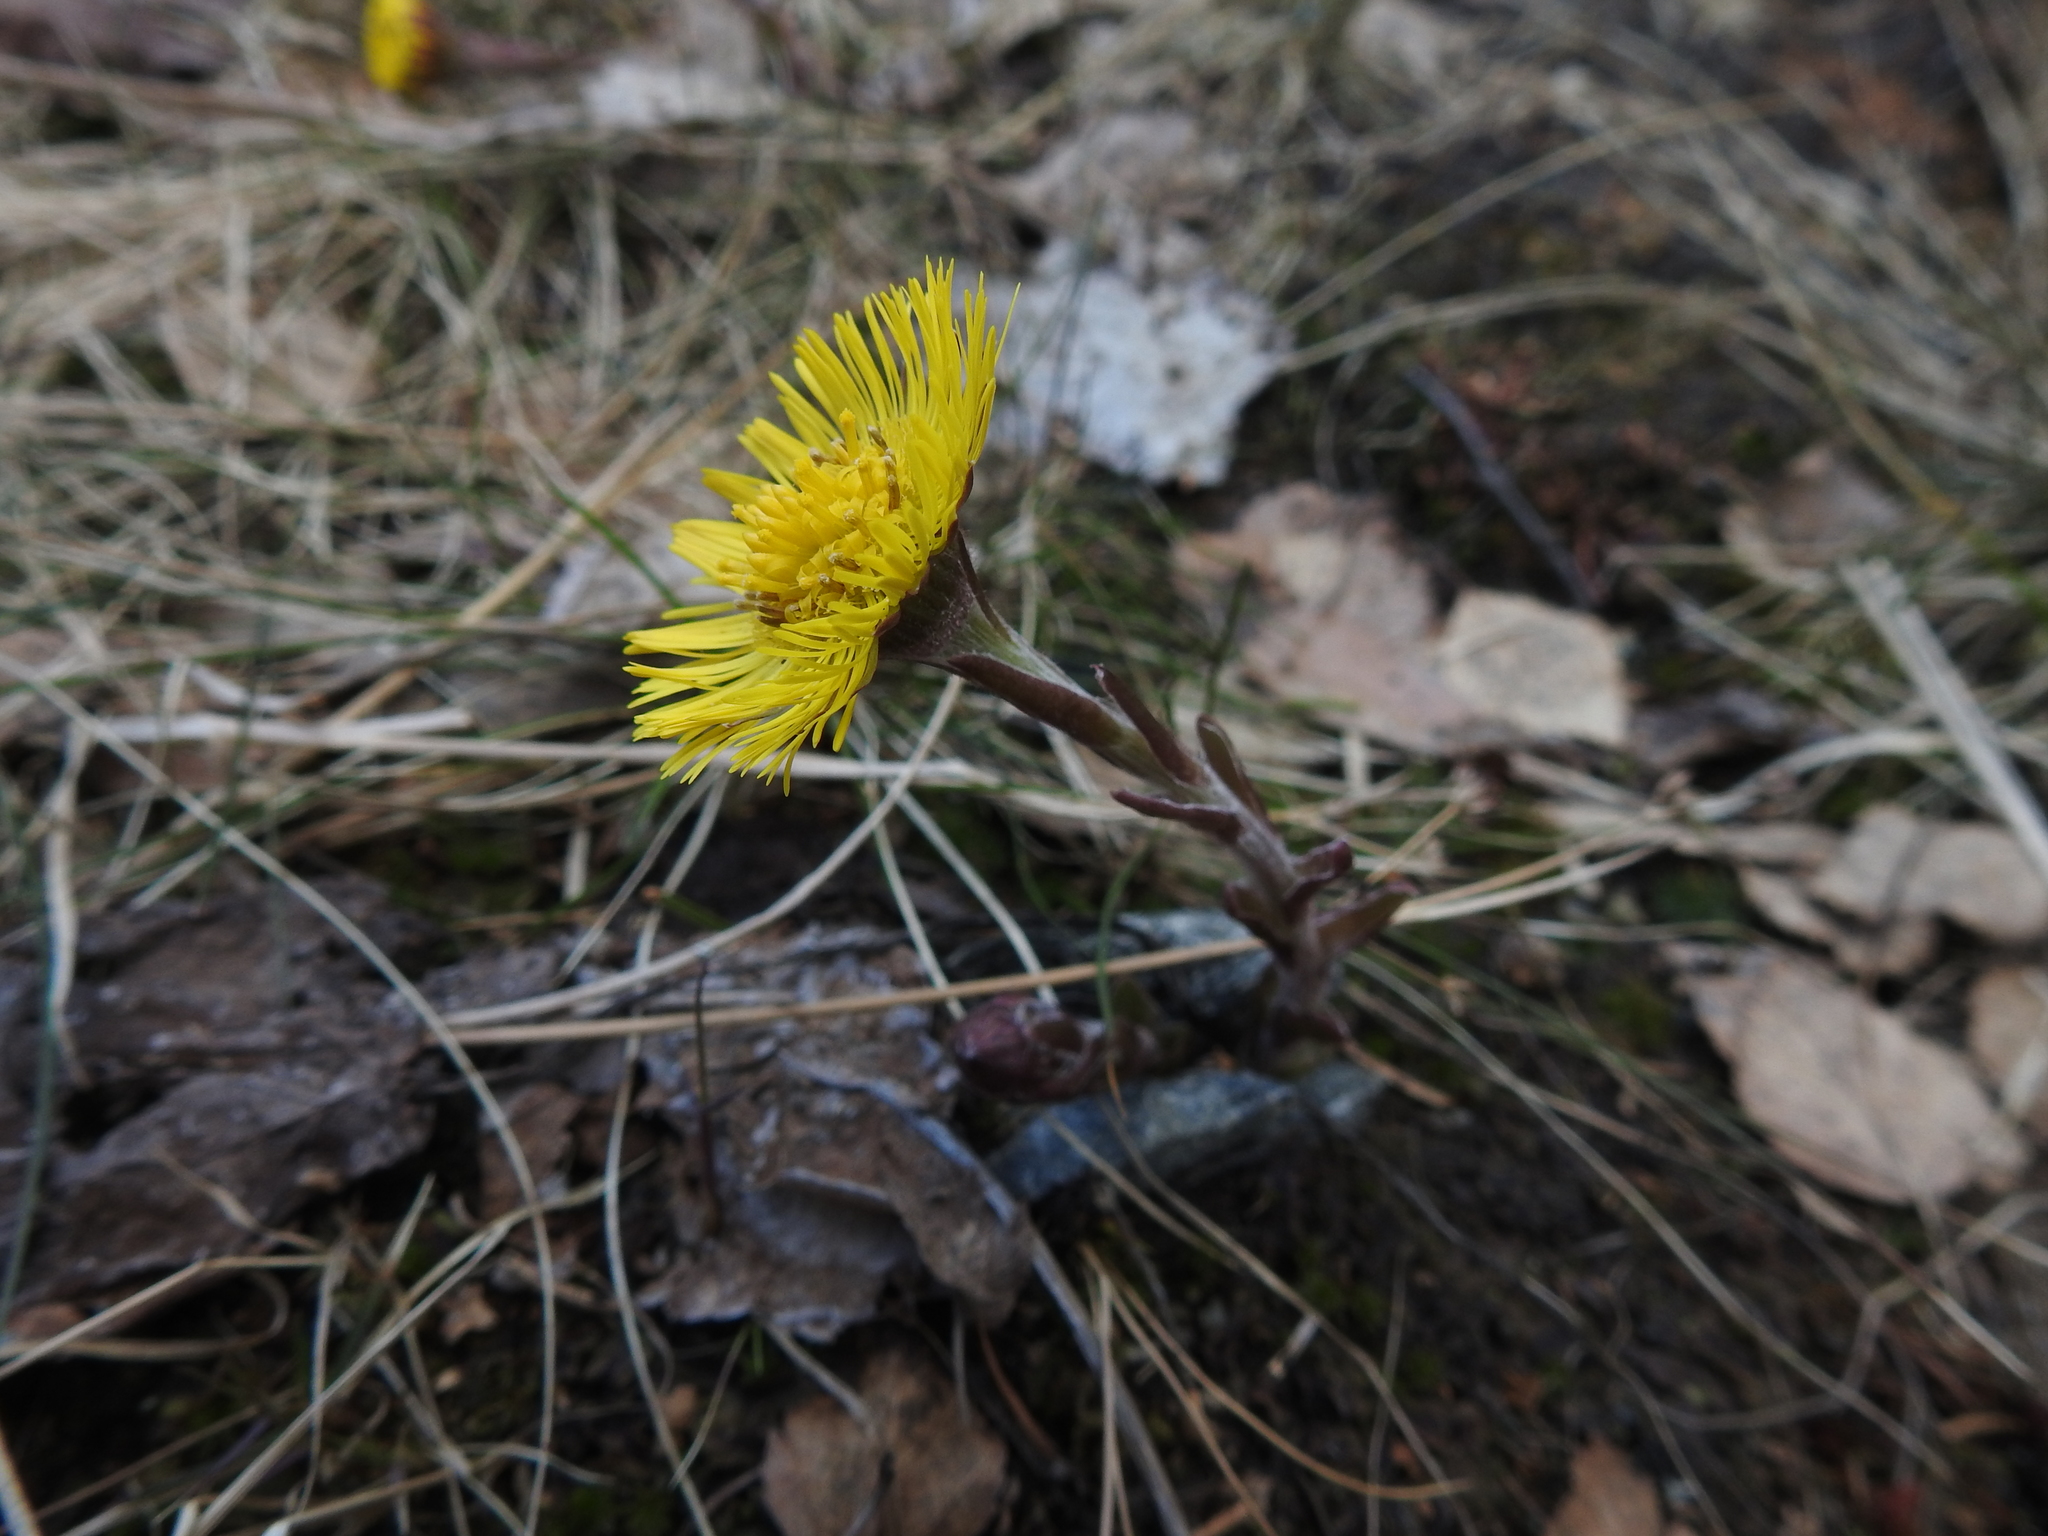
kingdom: Plantae
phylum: Tracheophyta
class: Magnoliopsida
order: Asterales
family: Asteraceae
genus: Tussilago
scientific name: Tussilago farfara
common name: Coltsfoot
